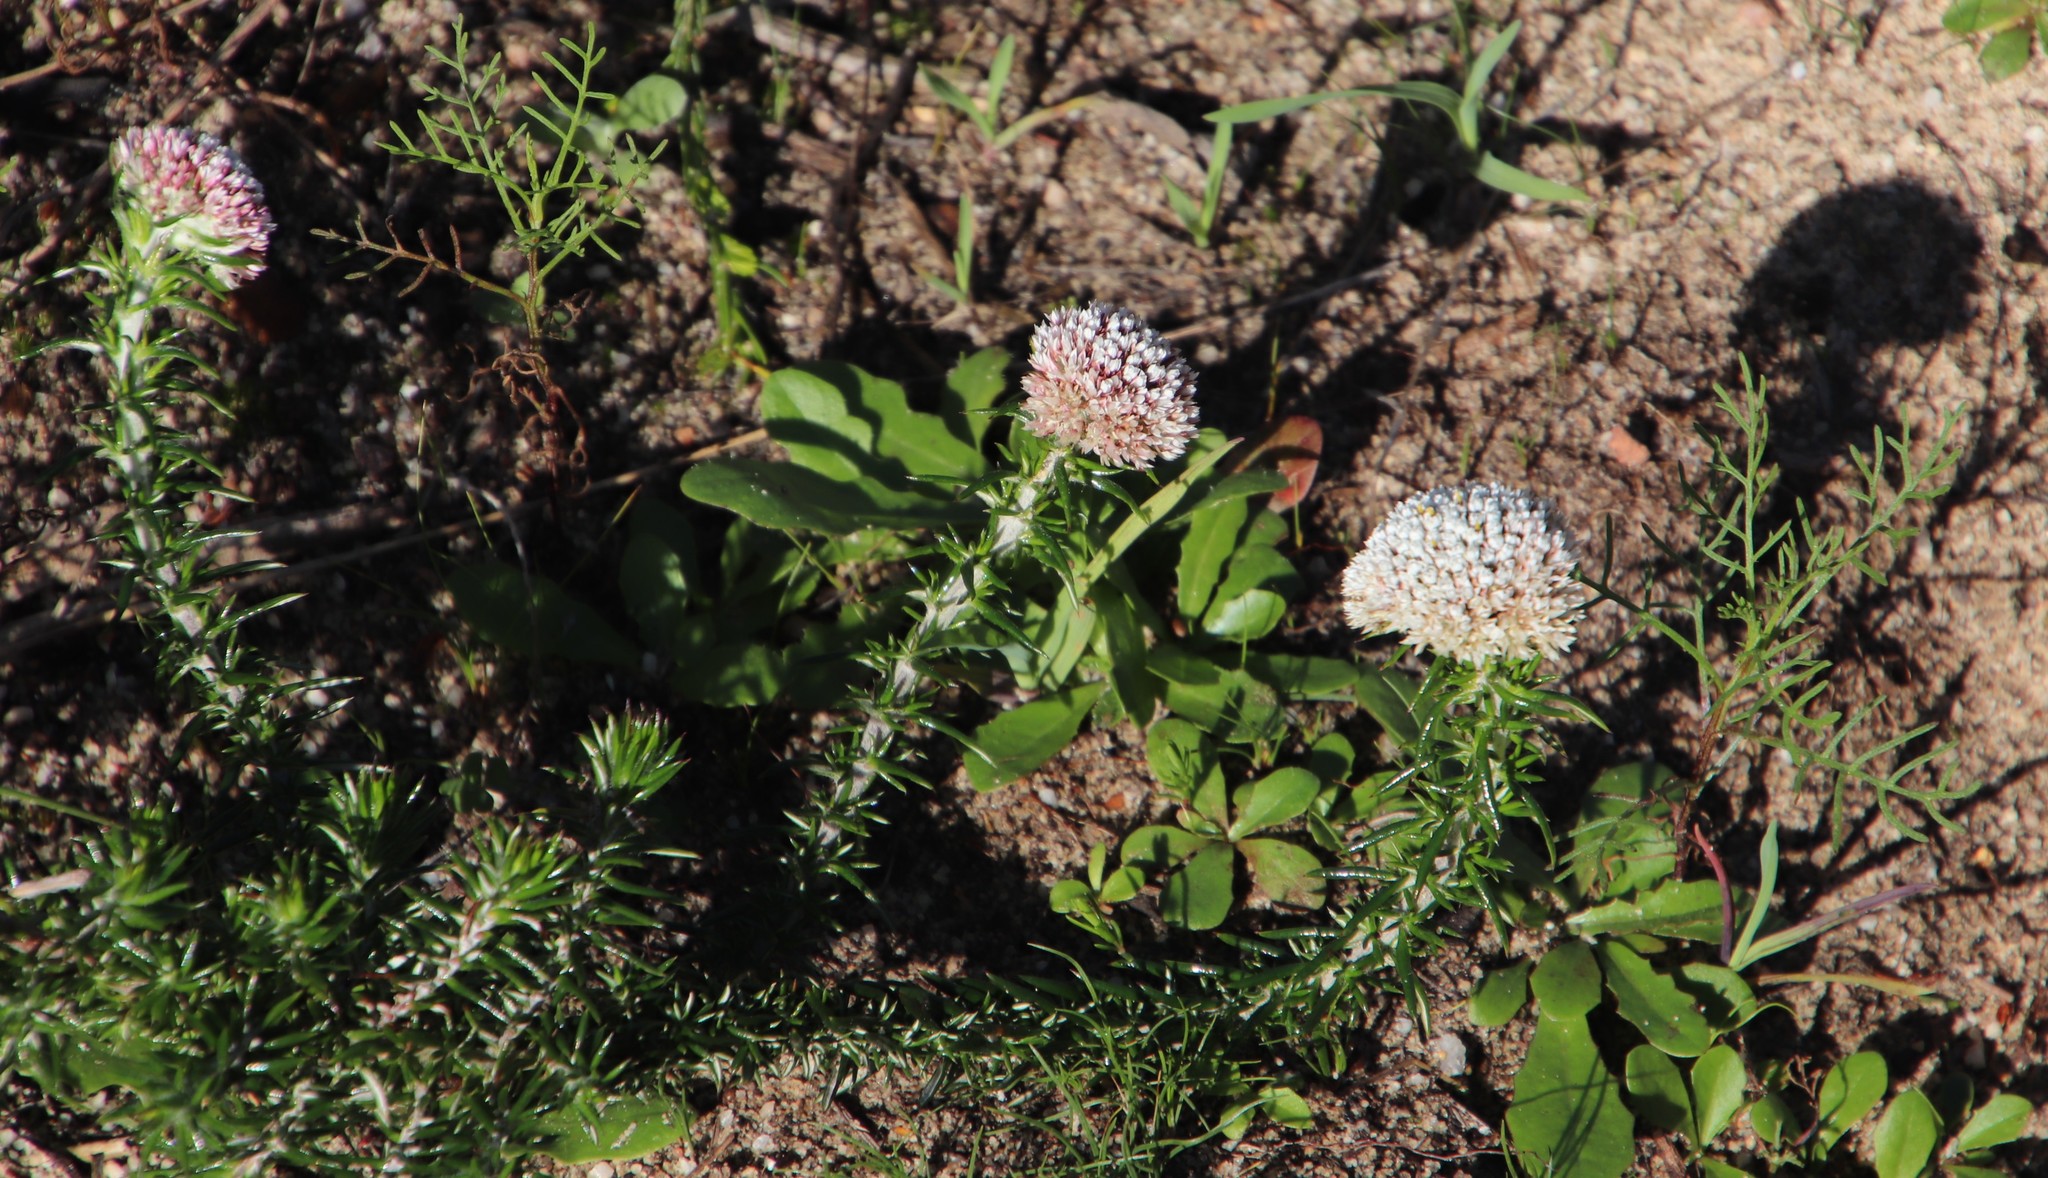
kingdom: Plantae
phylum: Tracheophyta
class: Magnoliopsida
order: Asterales
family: Asteraceae
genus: Metalasia
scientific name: Metalasia pulchella
